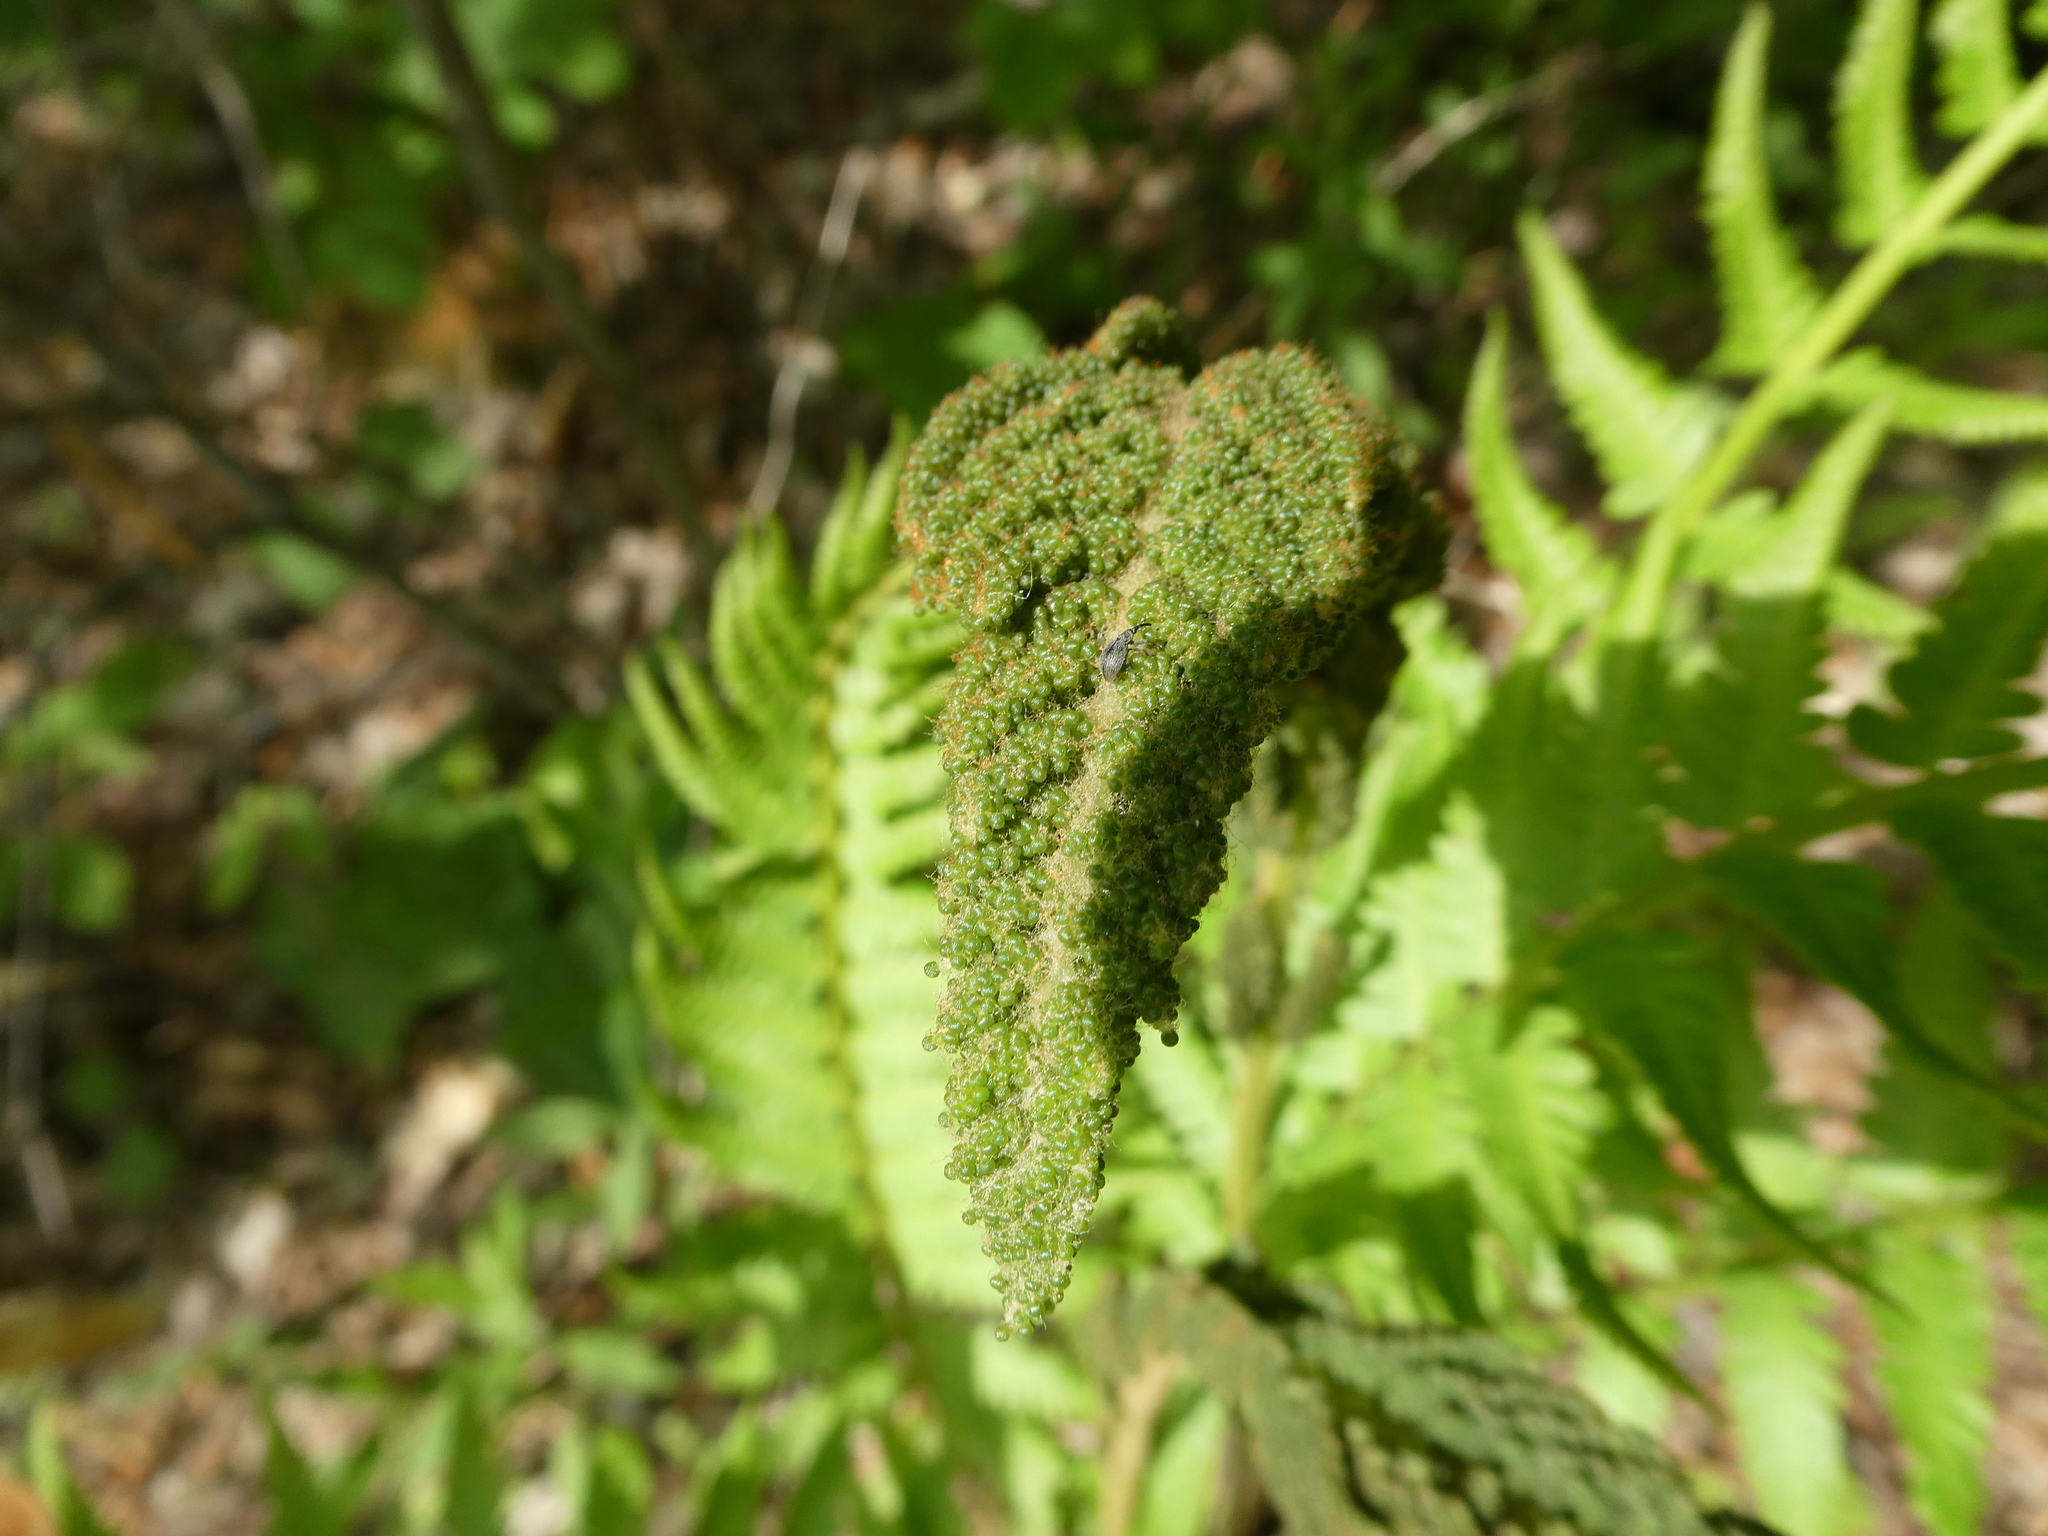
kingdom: Plantae
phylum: Tracheophyta
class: Polypodiopsida
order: Osmundales
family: Osmundaceae
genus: Osmundastrum
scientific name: Osmundastrum cinnamomeum
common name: Cinnamon fern
